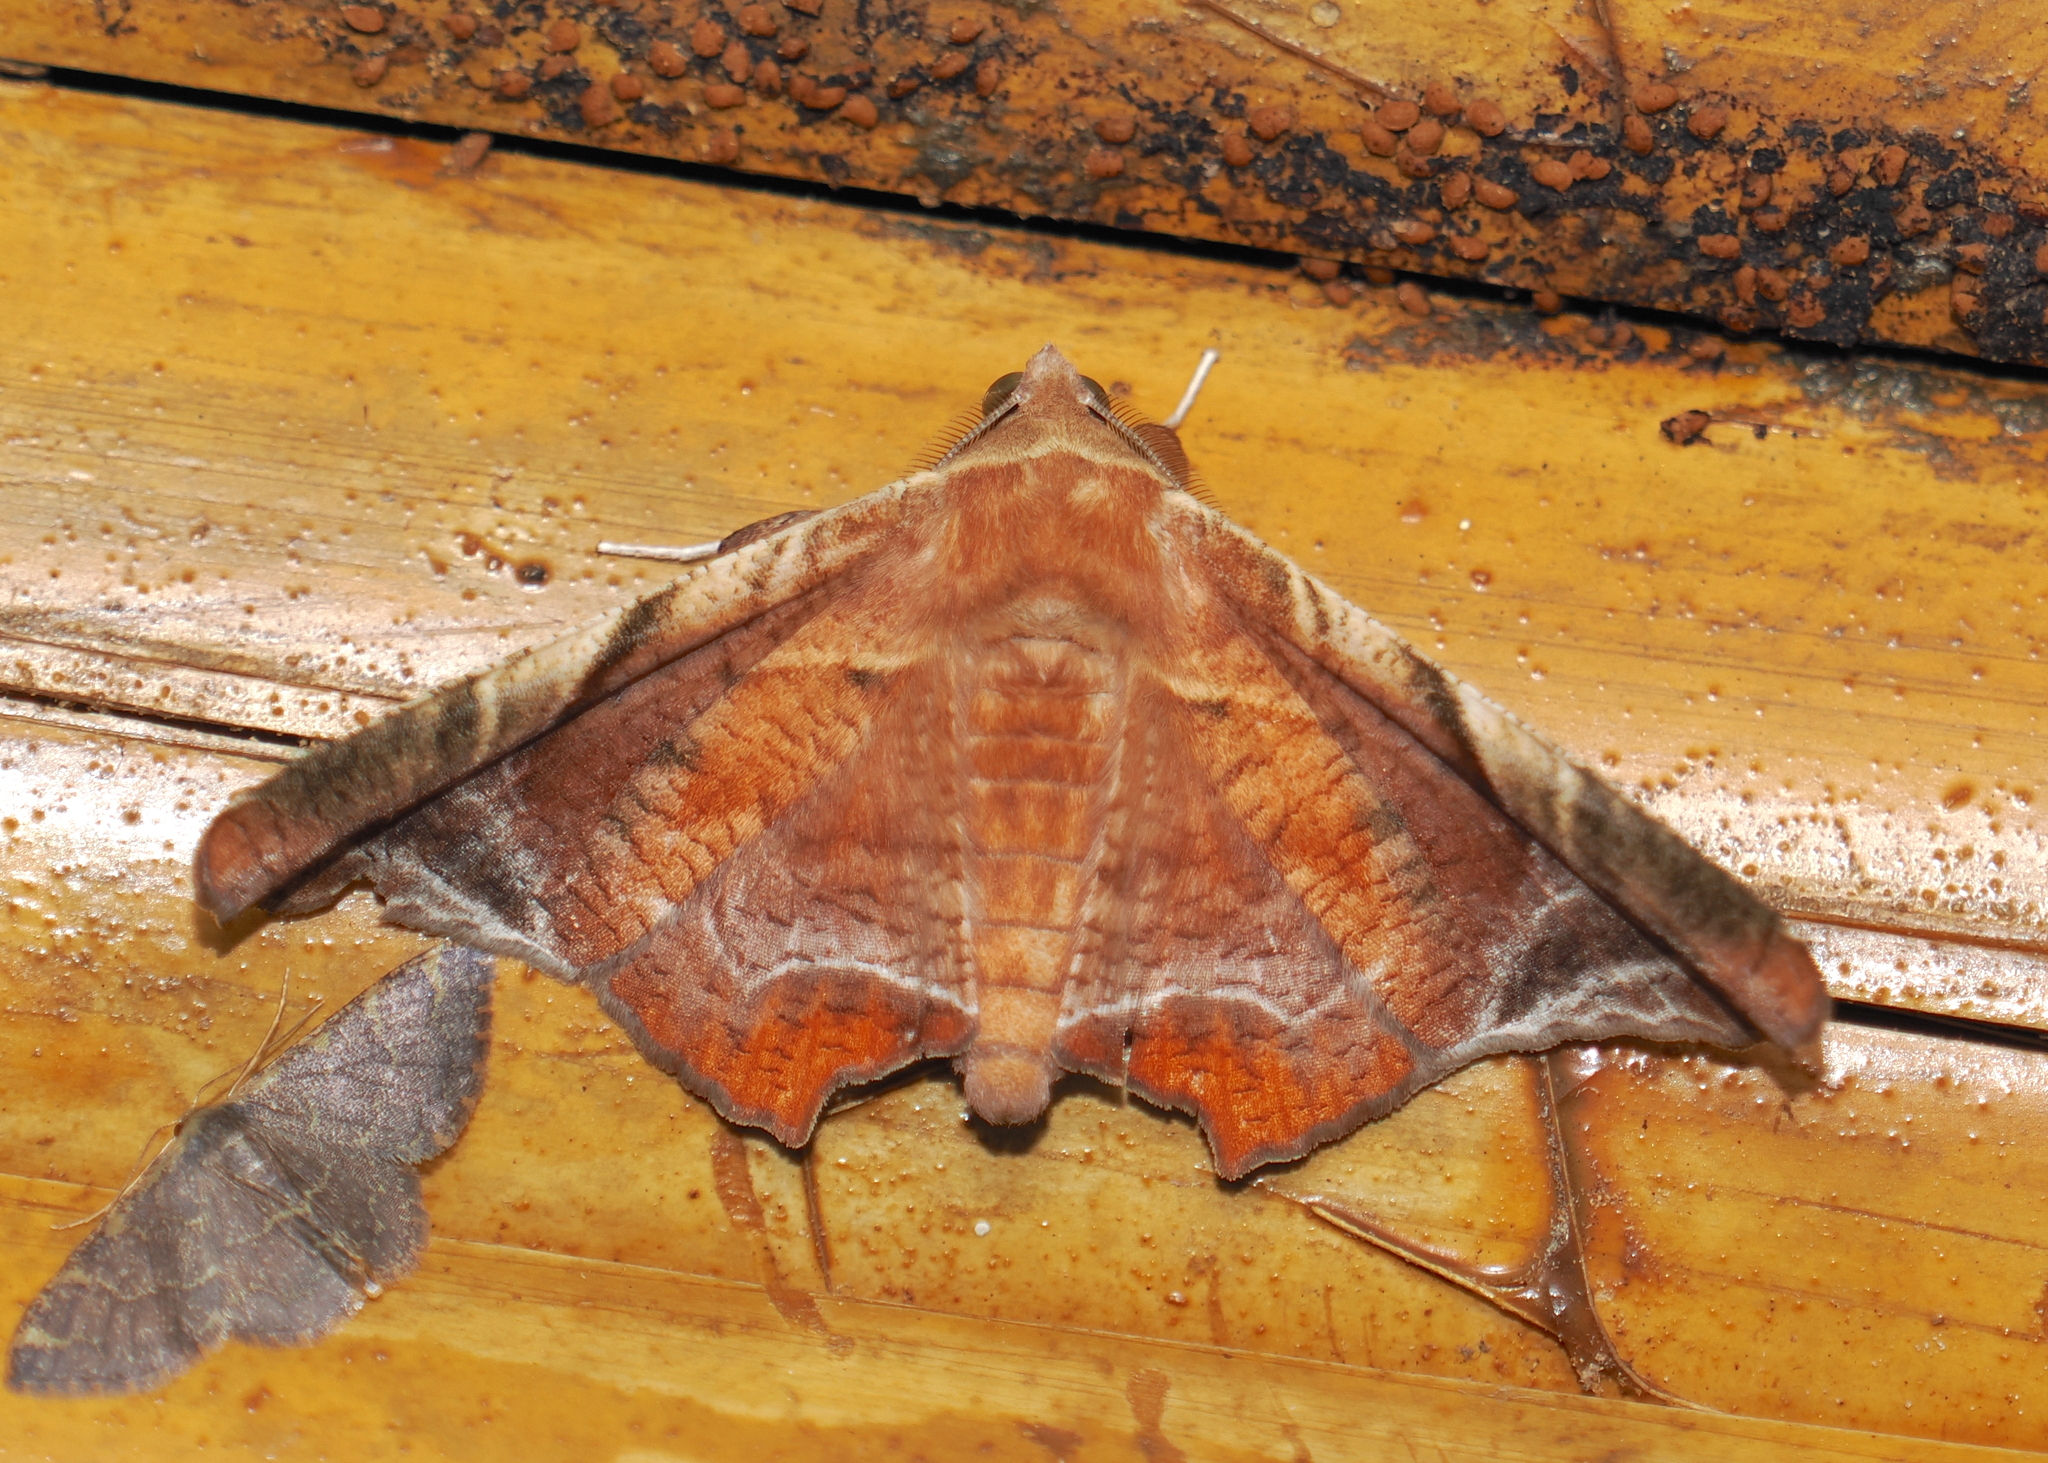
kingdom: Animalia
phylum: Arthropoda
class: Insecta
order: Lepidoptera
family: Erebidae
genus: Episparis
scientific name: Episparis tortuosalis
